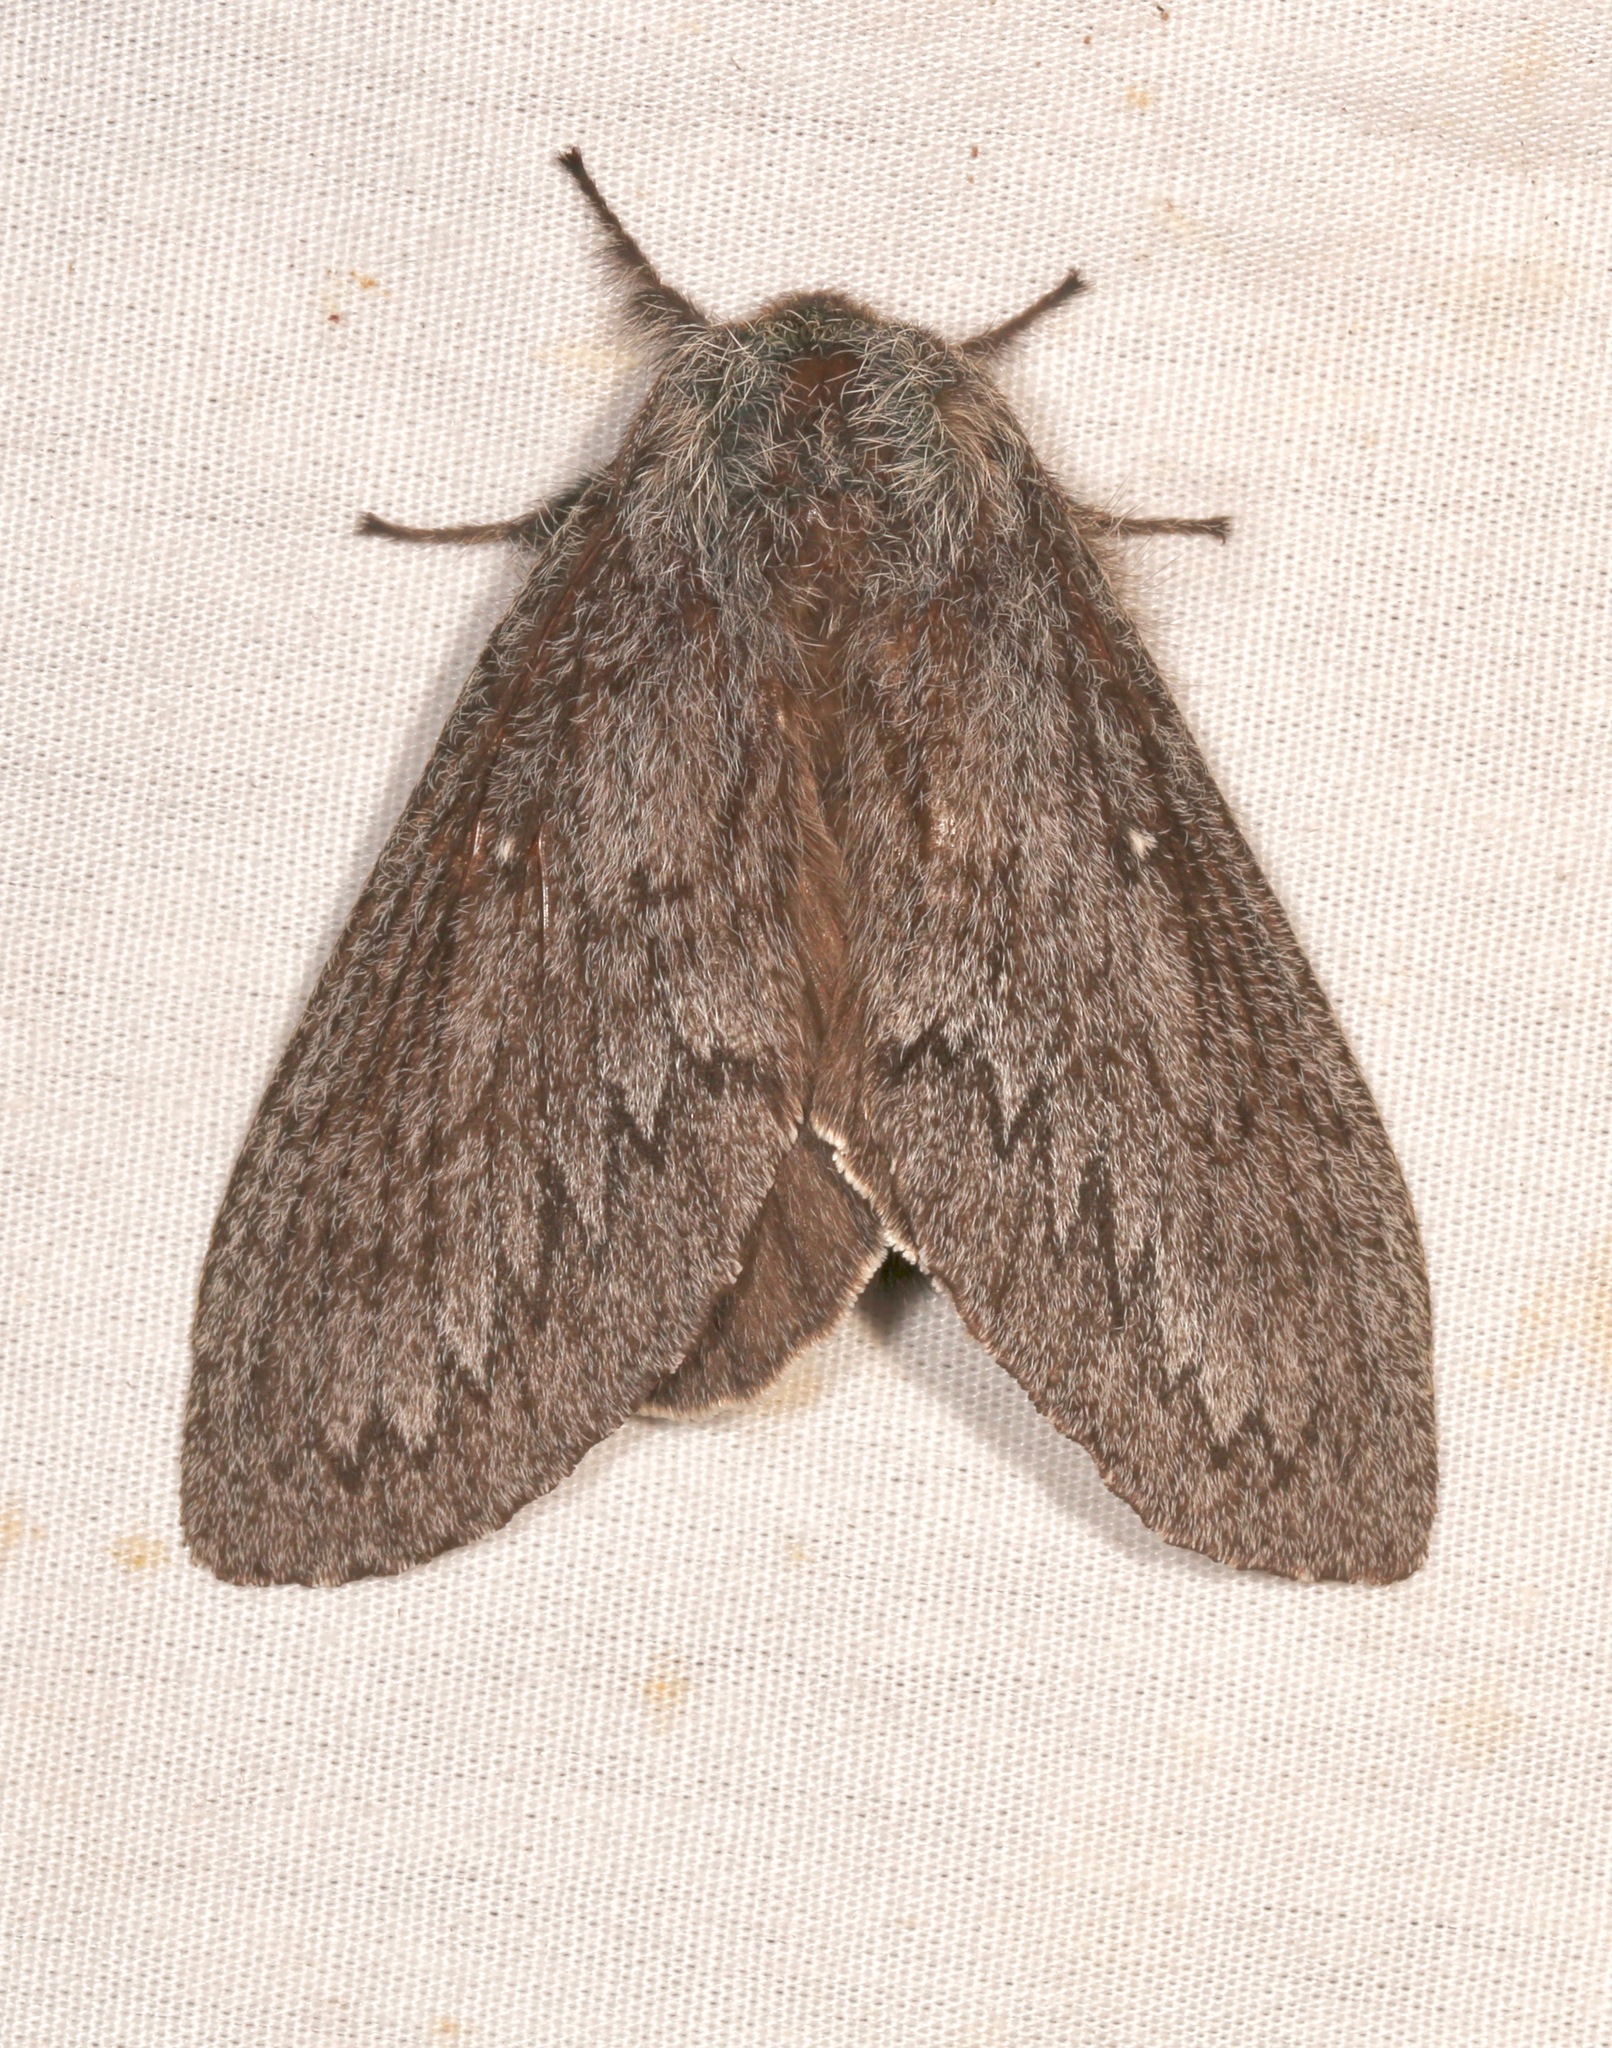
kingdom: Animalia
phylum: Arthropoda
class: Insecta
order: Lepidoptera
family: Lasiocampidae
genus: Gloveria
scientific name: Gloveria arizonensis
